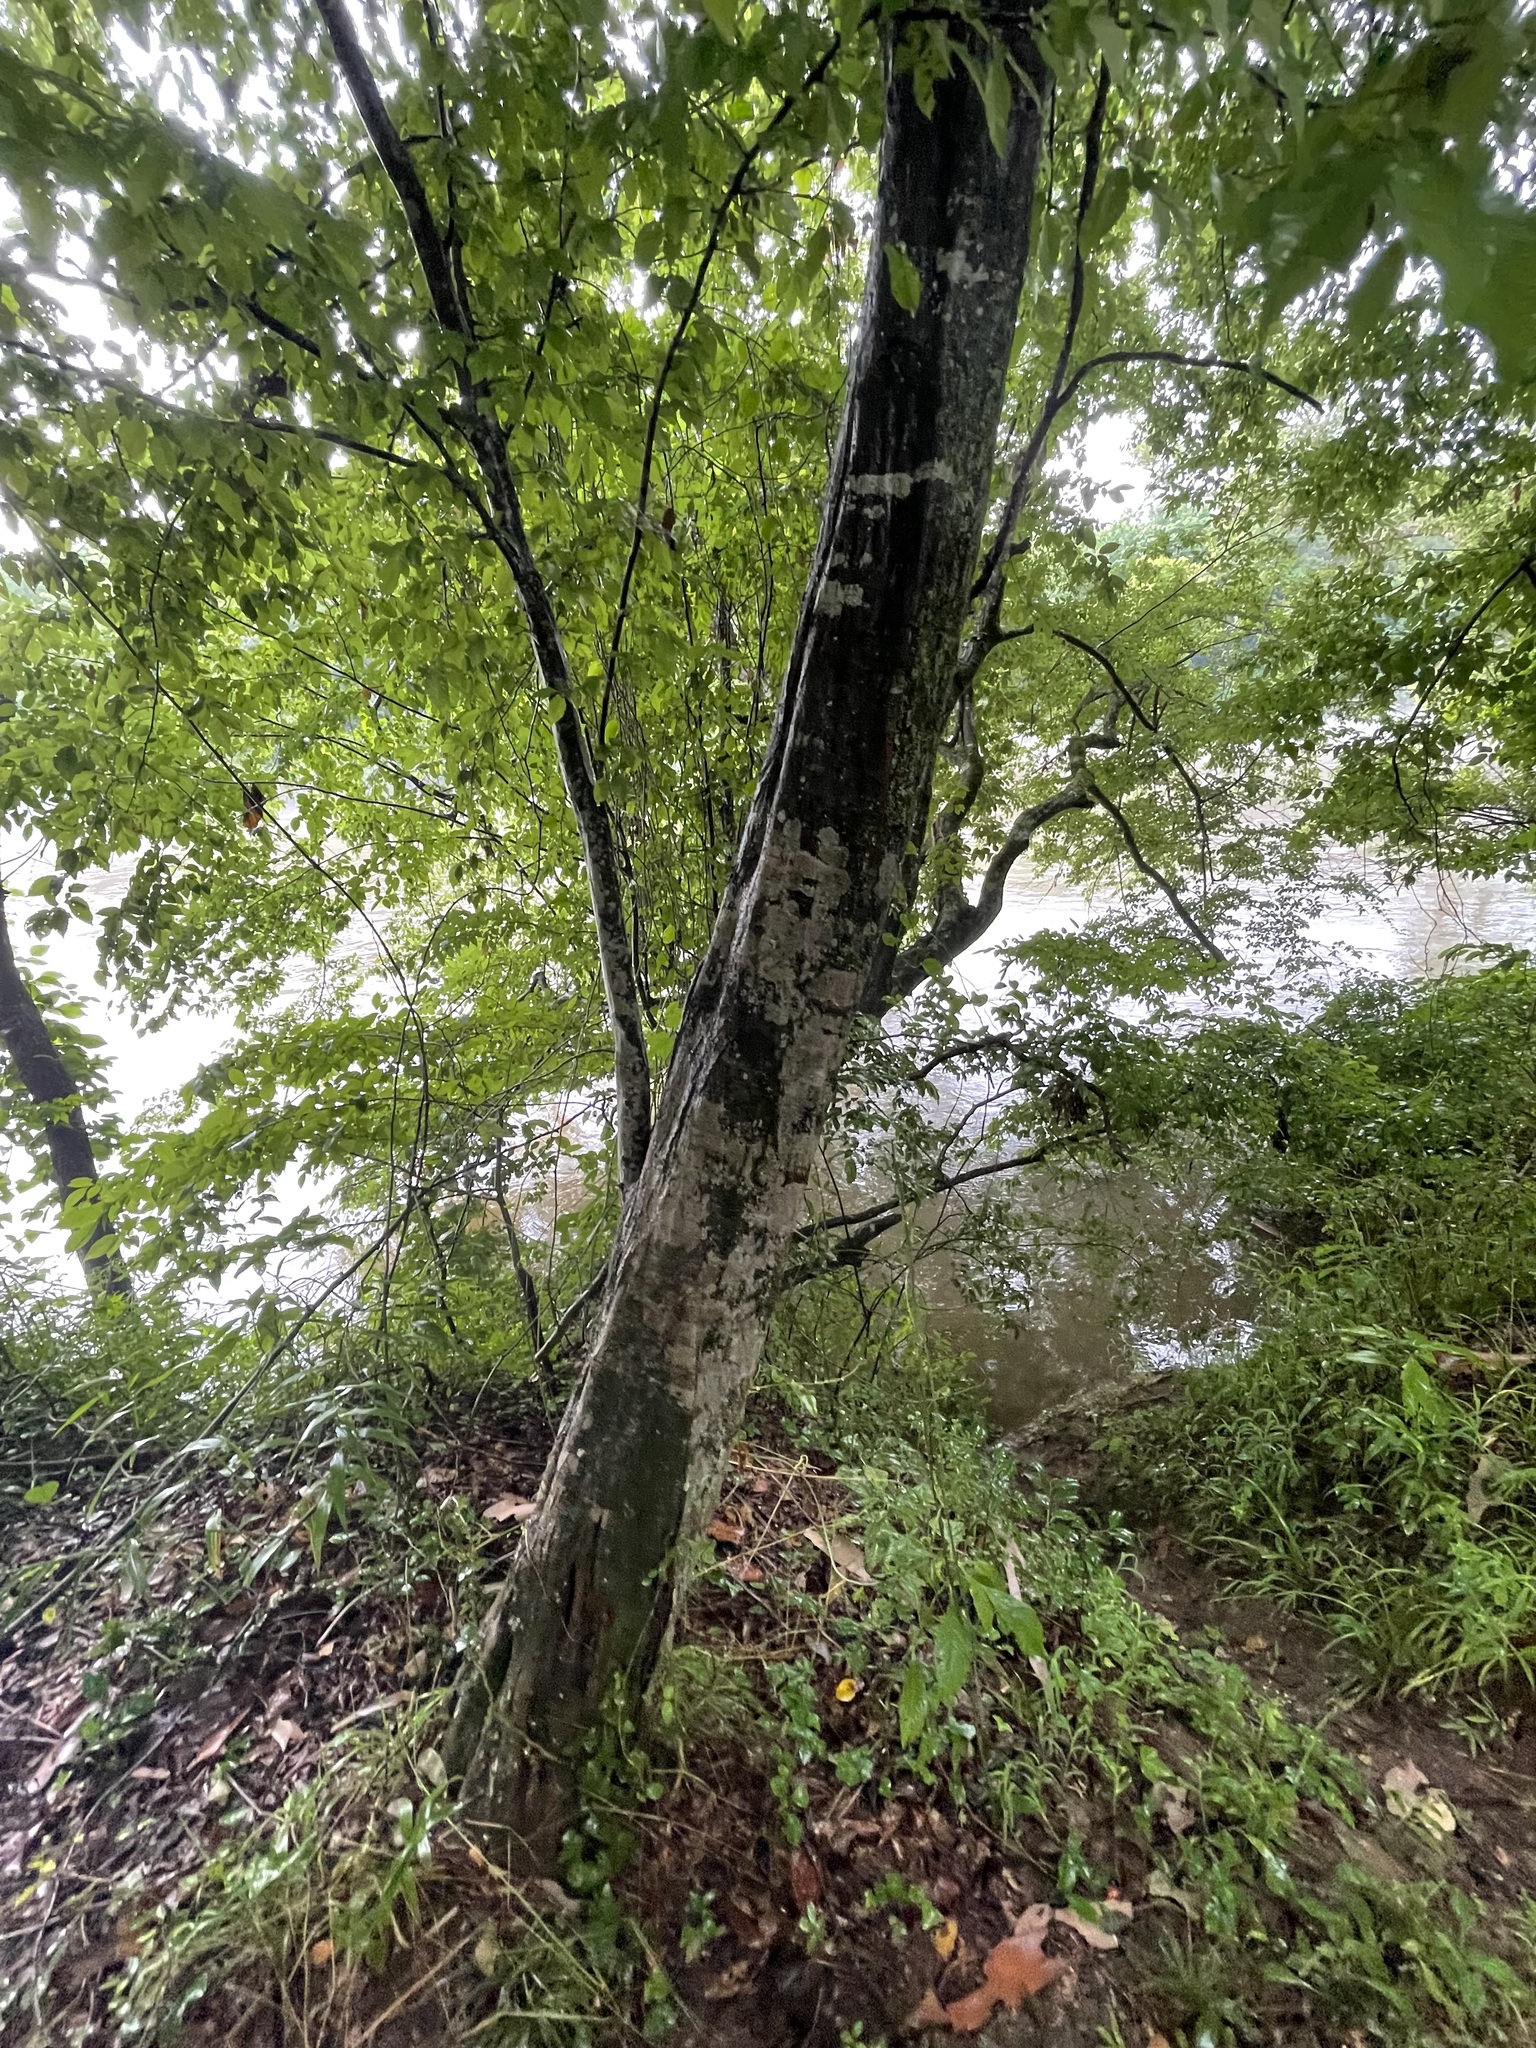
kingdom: Plantae
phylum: Tracheophyta
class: Magnoliopsida
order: Fagales
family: Betulaceae
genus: Carpinus
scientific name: Carpinus caroliniana
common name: American hornbeam
